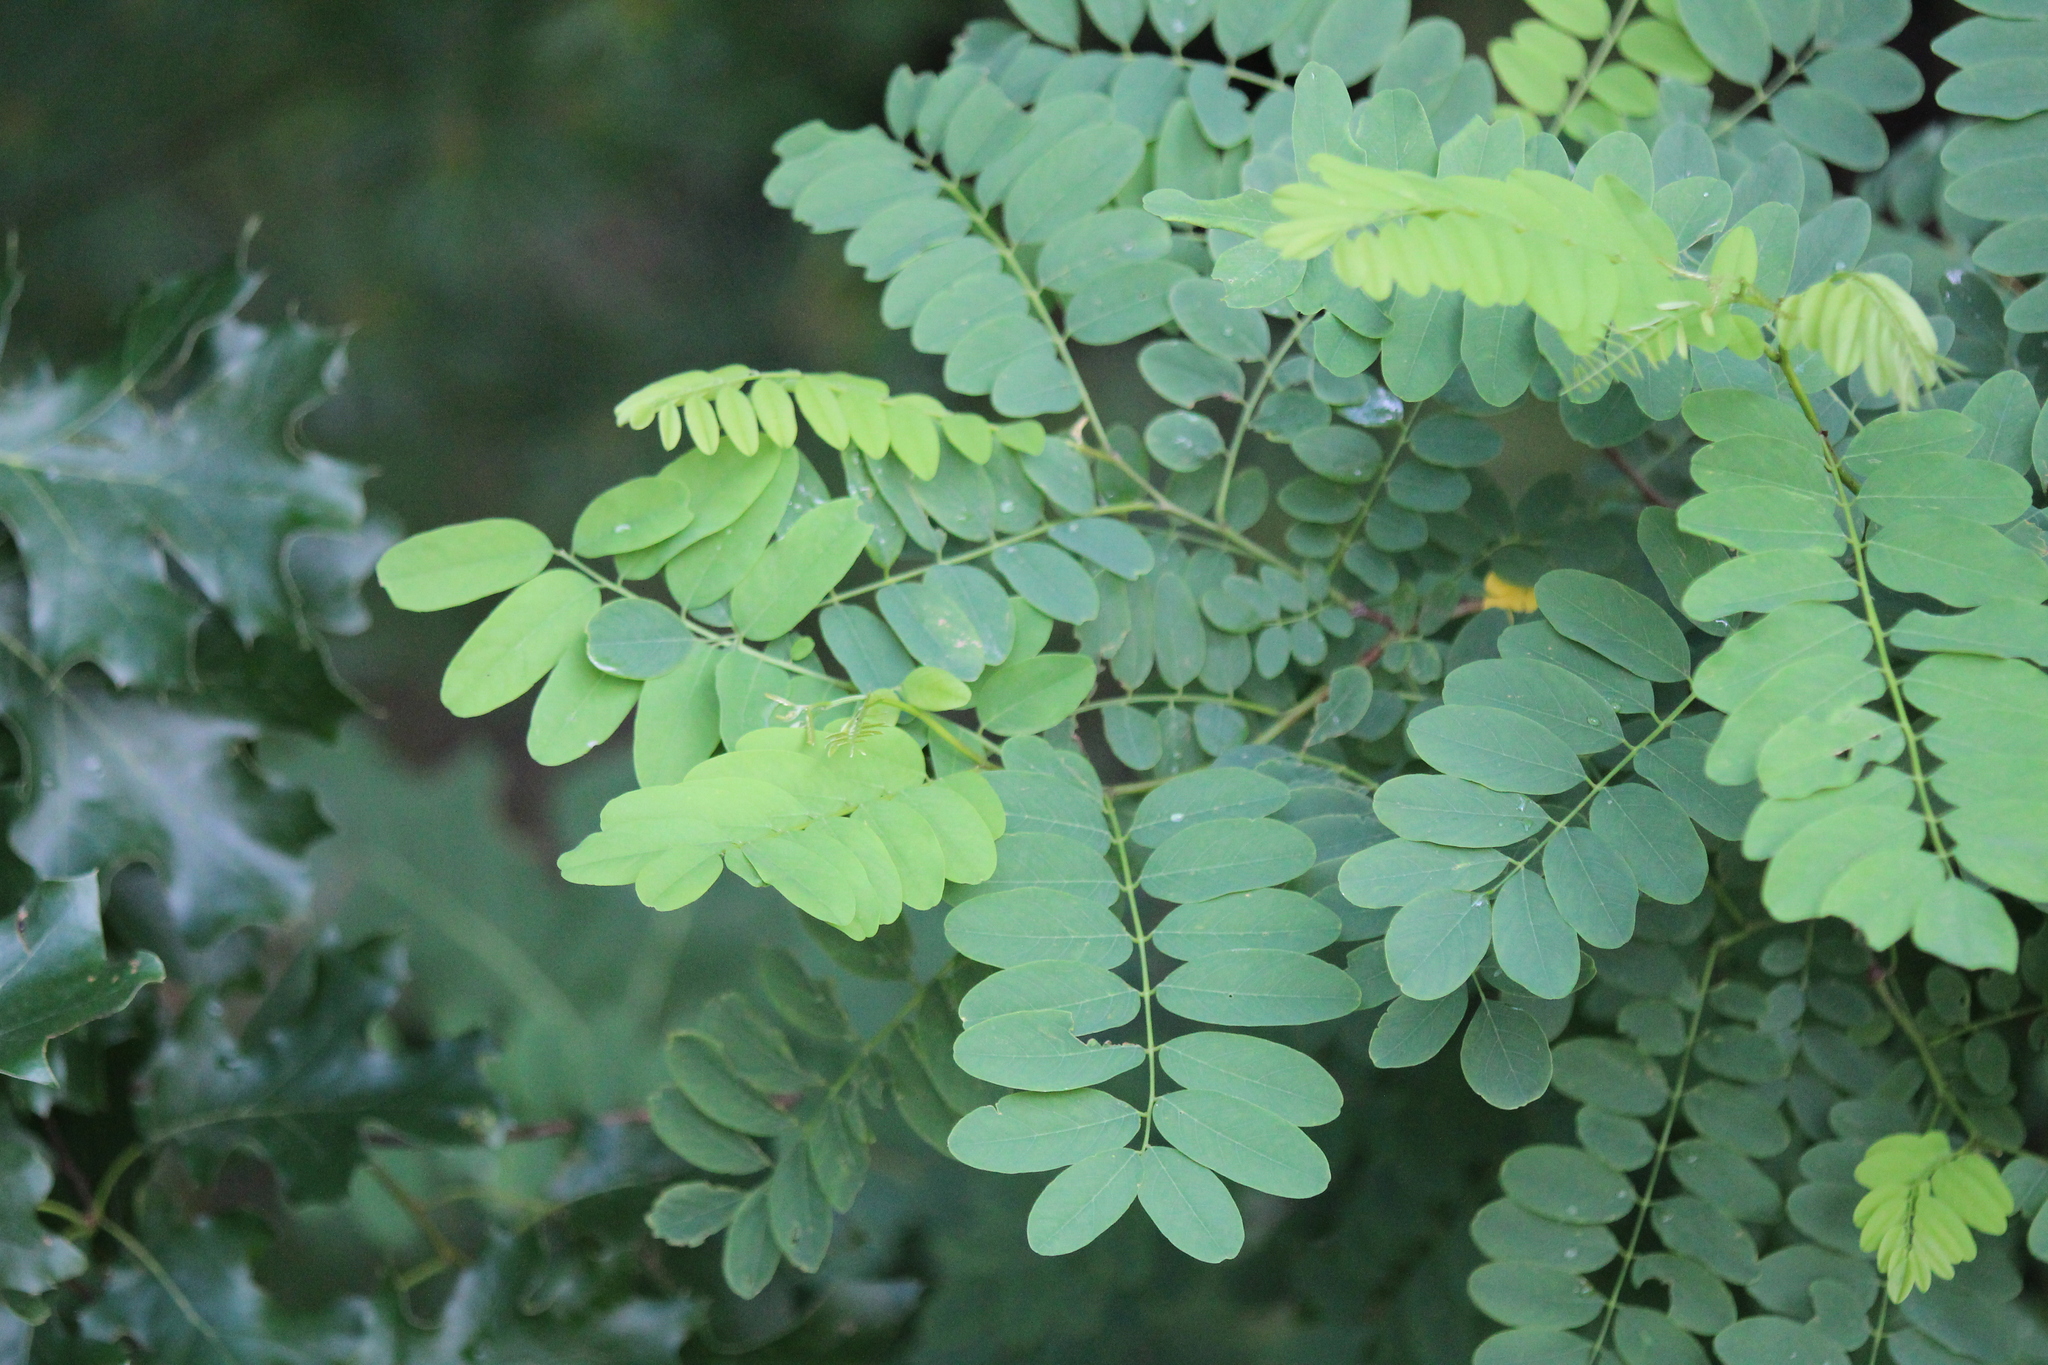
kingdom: Plantae
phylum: Tracheophyta
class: Magnoliopsida
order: Fabales
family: Fabaceae
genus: Robinia
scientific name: Robinia pseudoacacia
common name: Black locust
